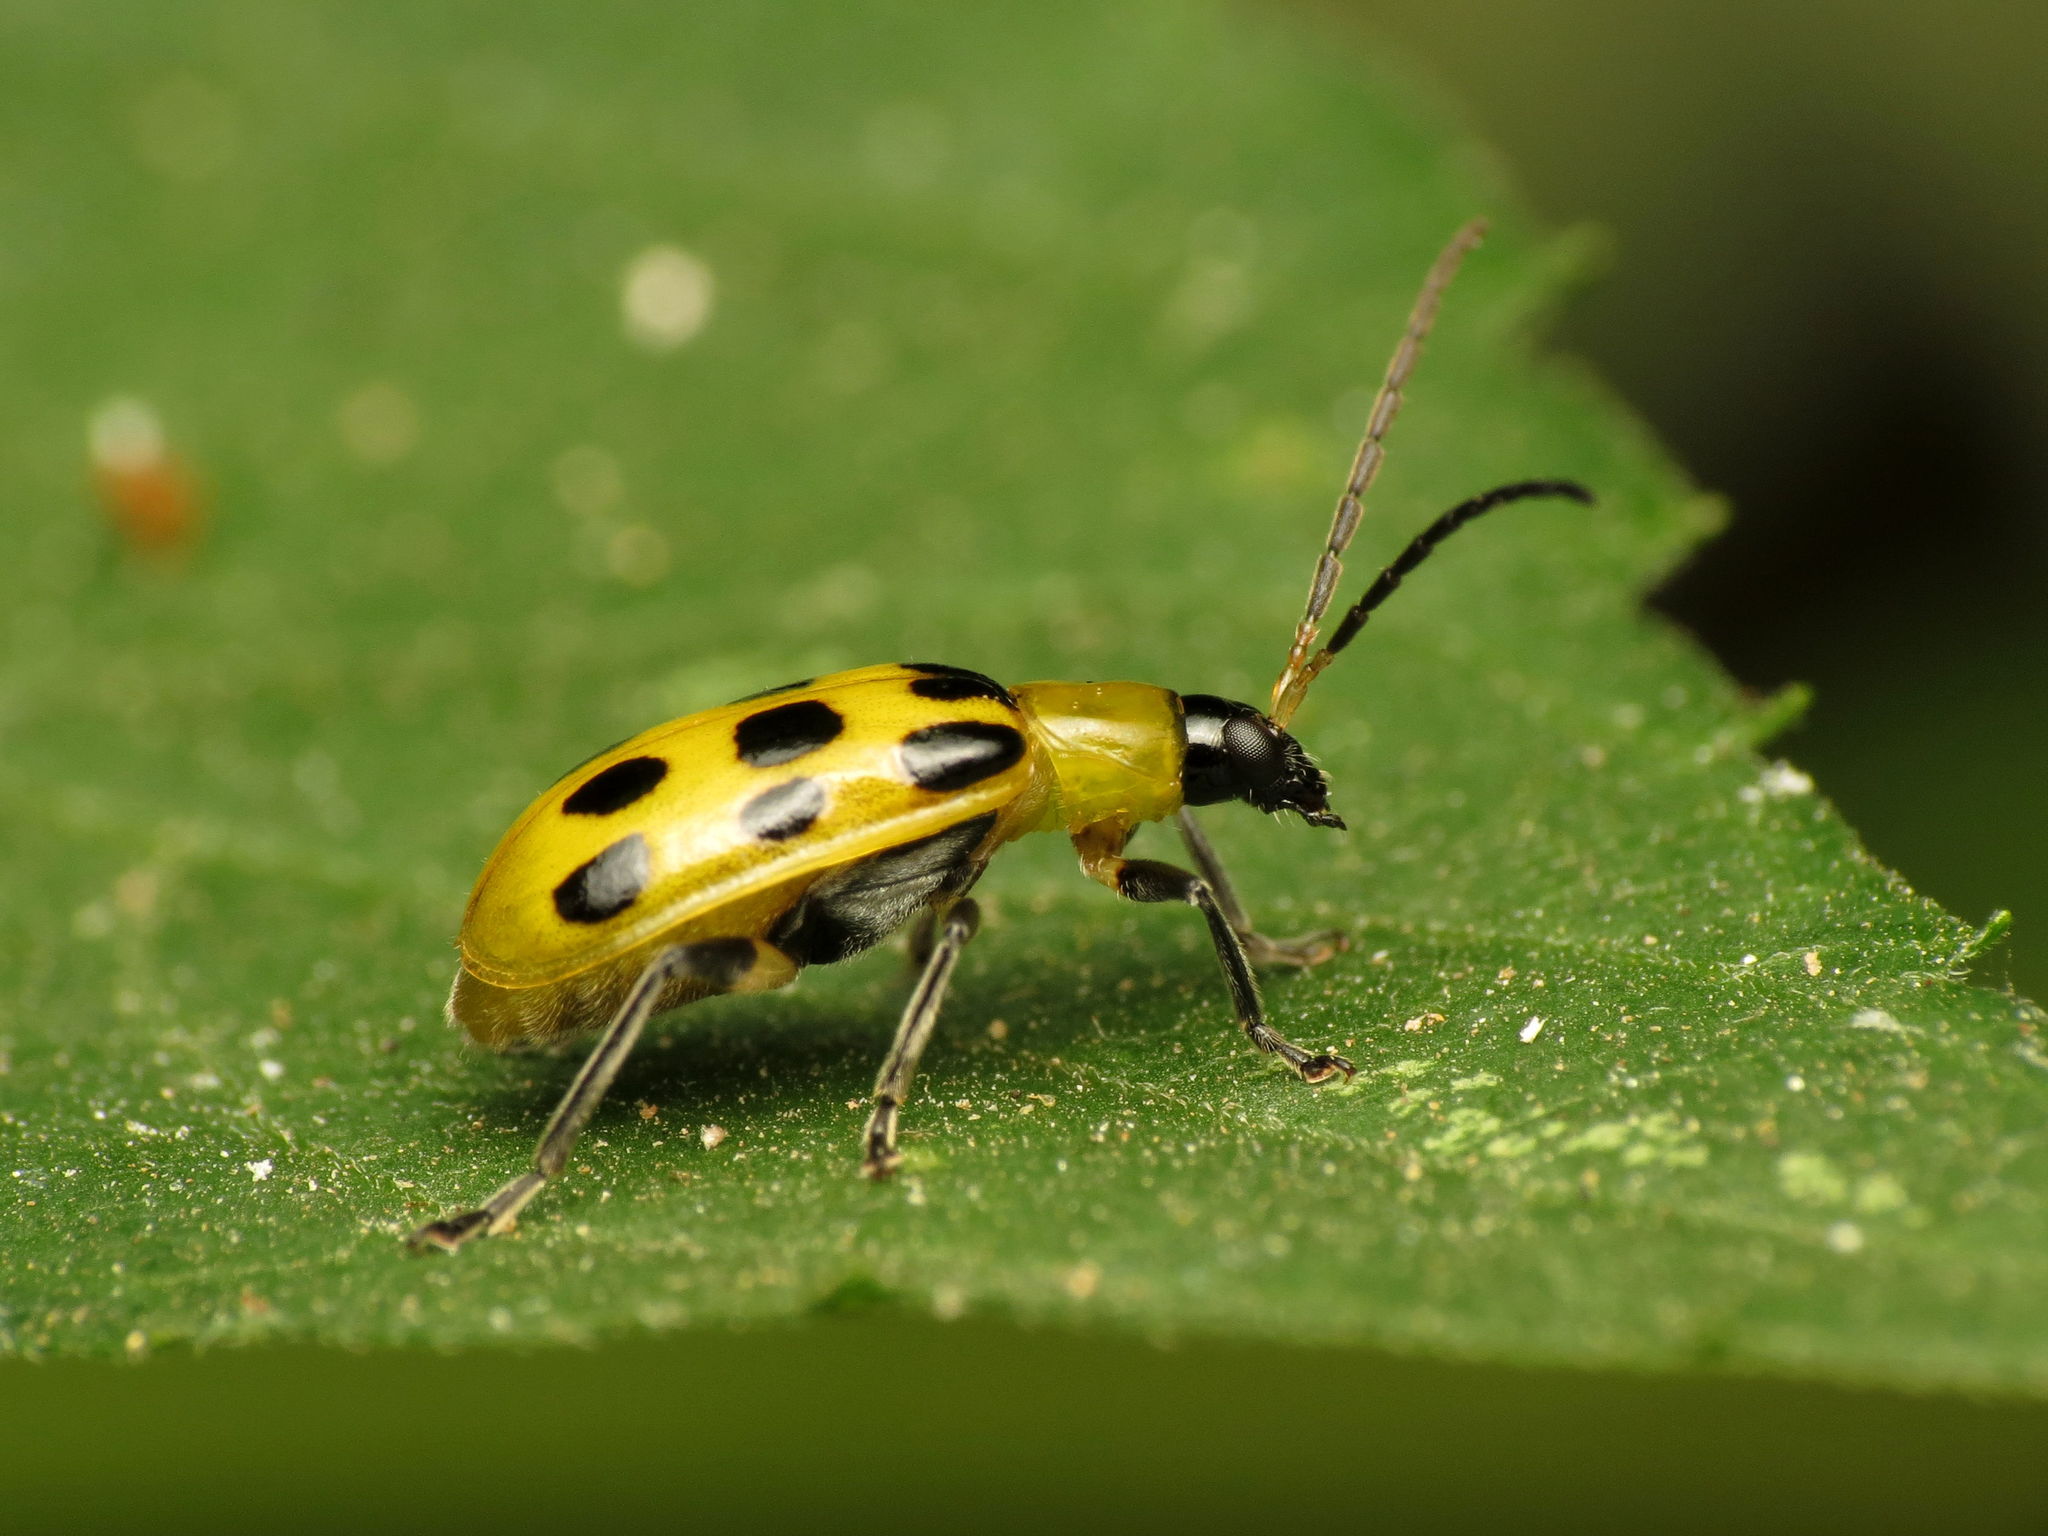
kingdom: Animalia
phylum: Arthropoda
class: Insecta
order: Coleoptera
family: Chrysomelidae
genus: Diabrotica
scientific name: Diabrotica undecimpunctata
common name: Spotted cucumber beetle
